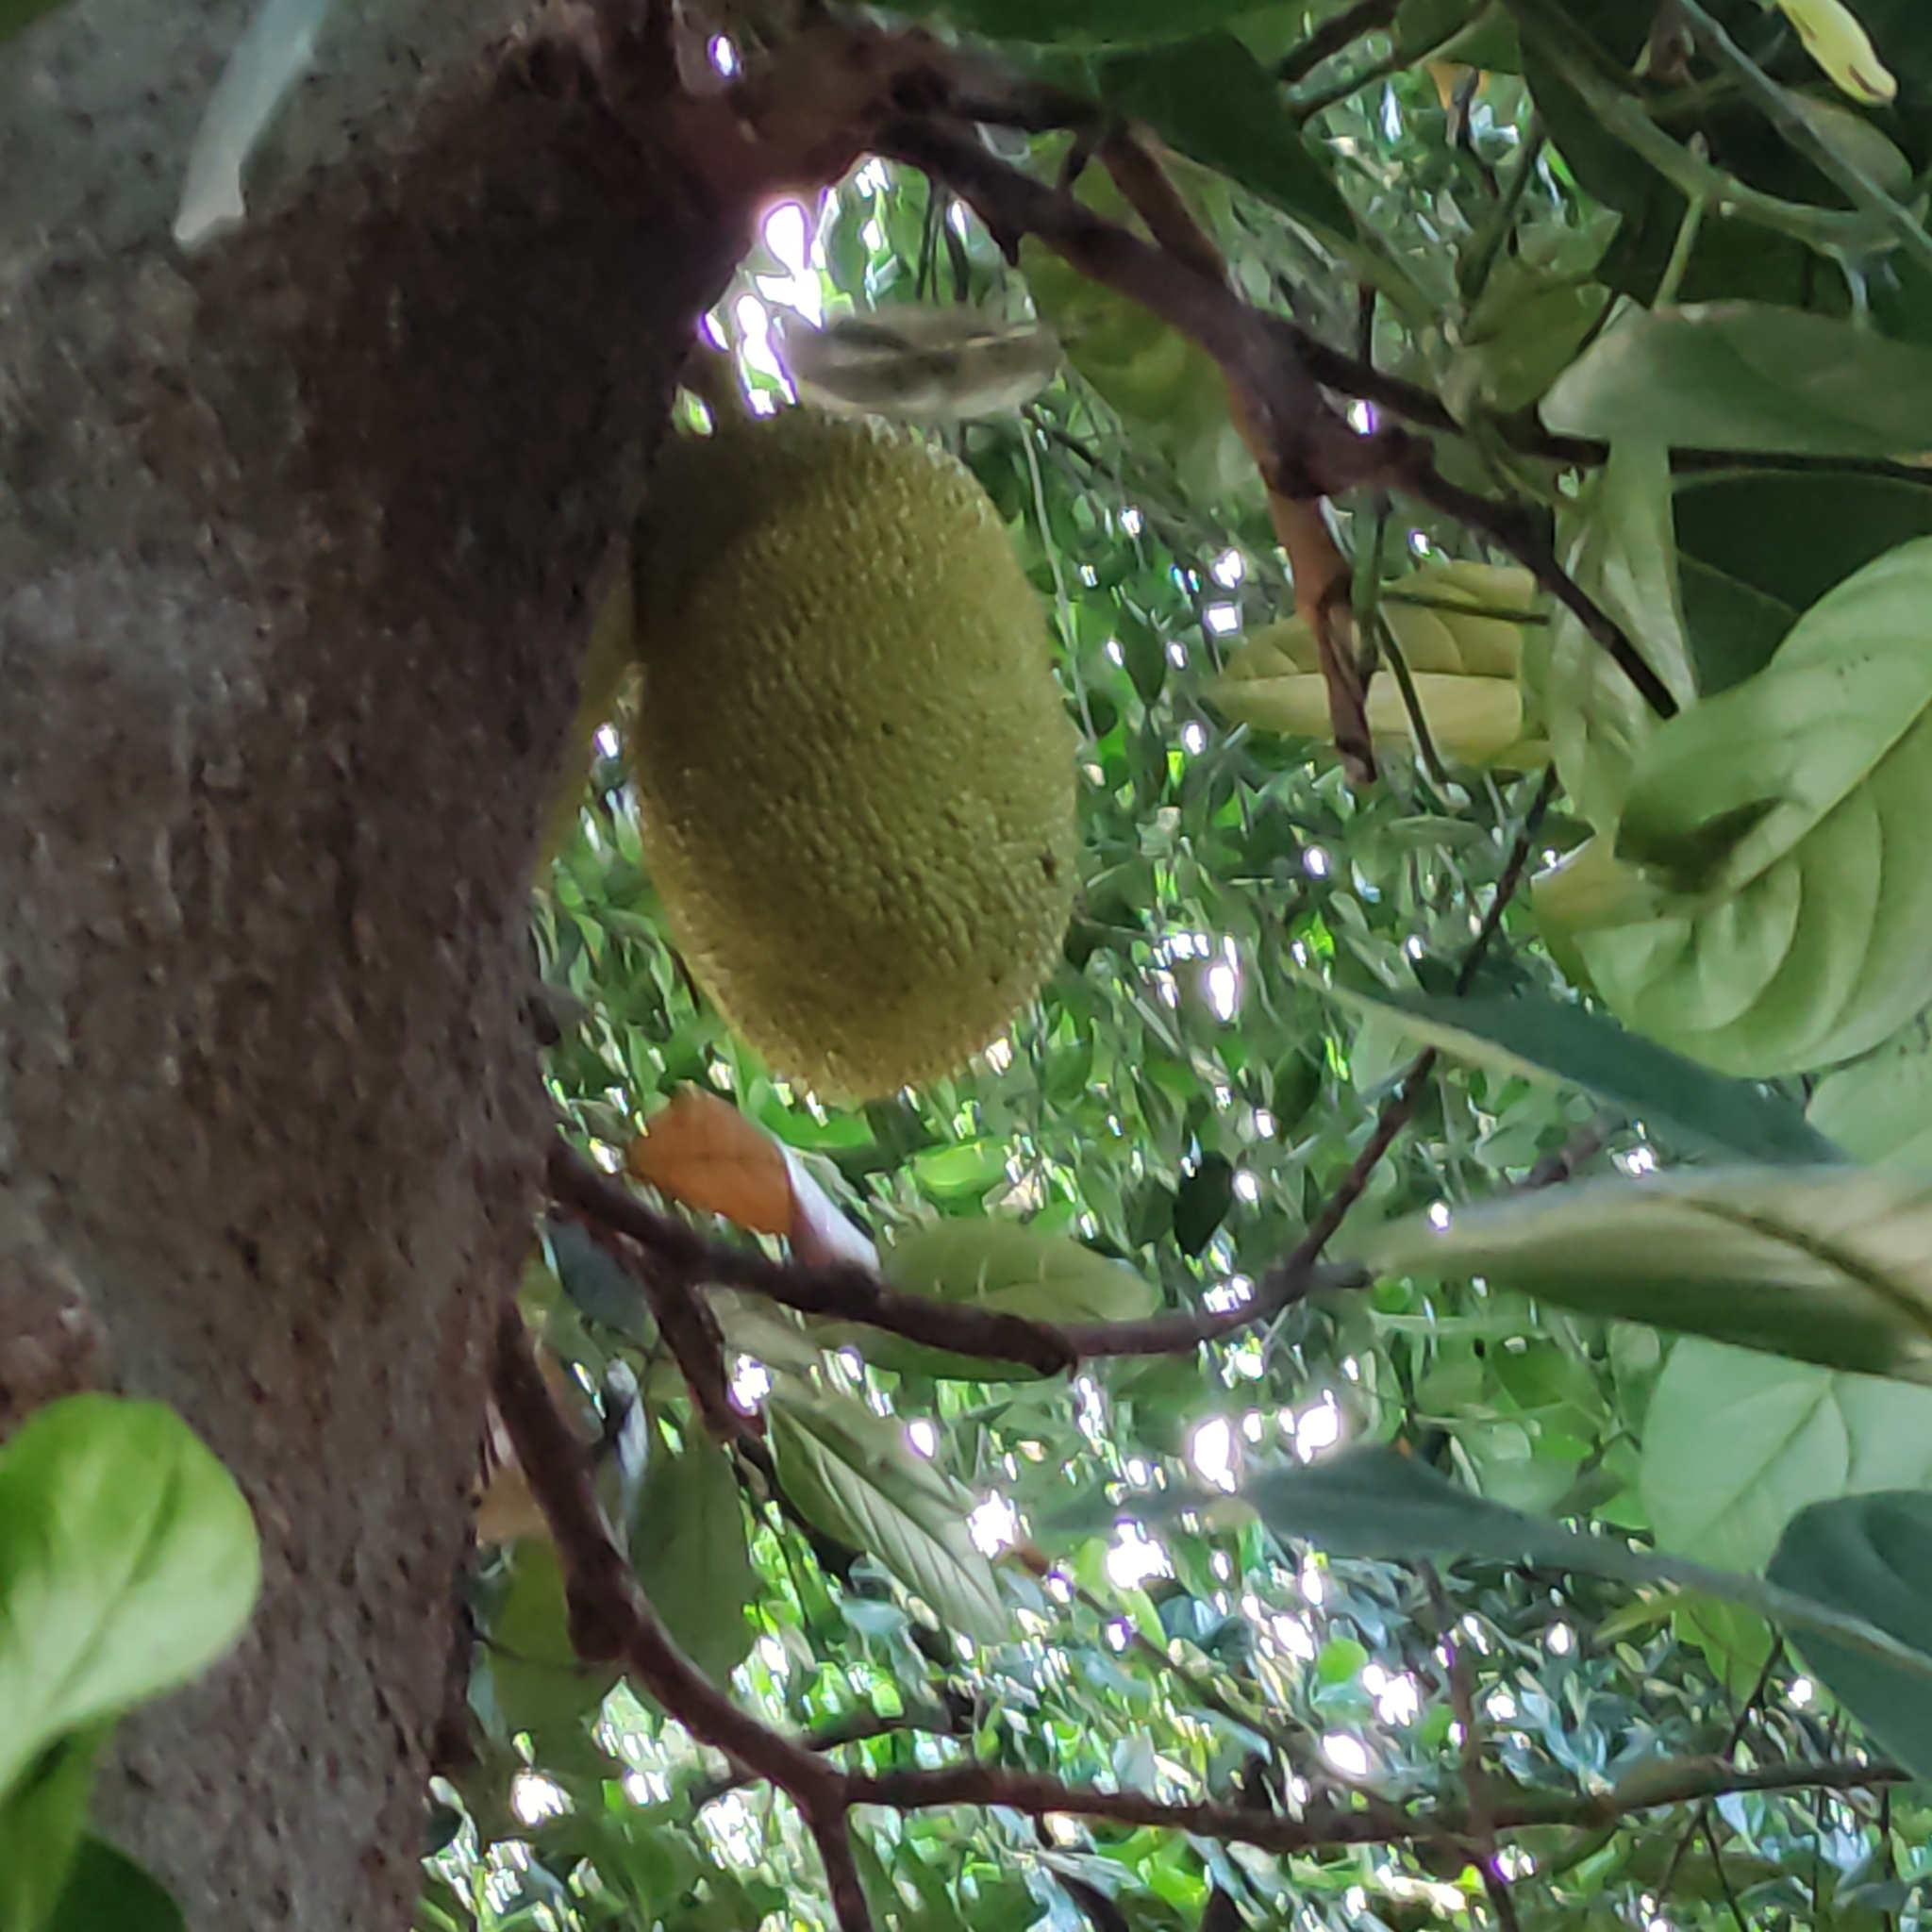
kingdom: Plantae
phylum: Tracheophyta
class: Magnoliopsida
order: Rosales
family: Moraceae
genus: Artocarpus
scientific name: Artocarpus heterophyllus
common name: Jackfruit
